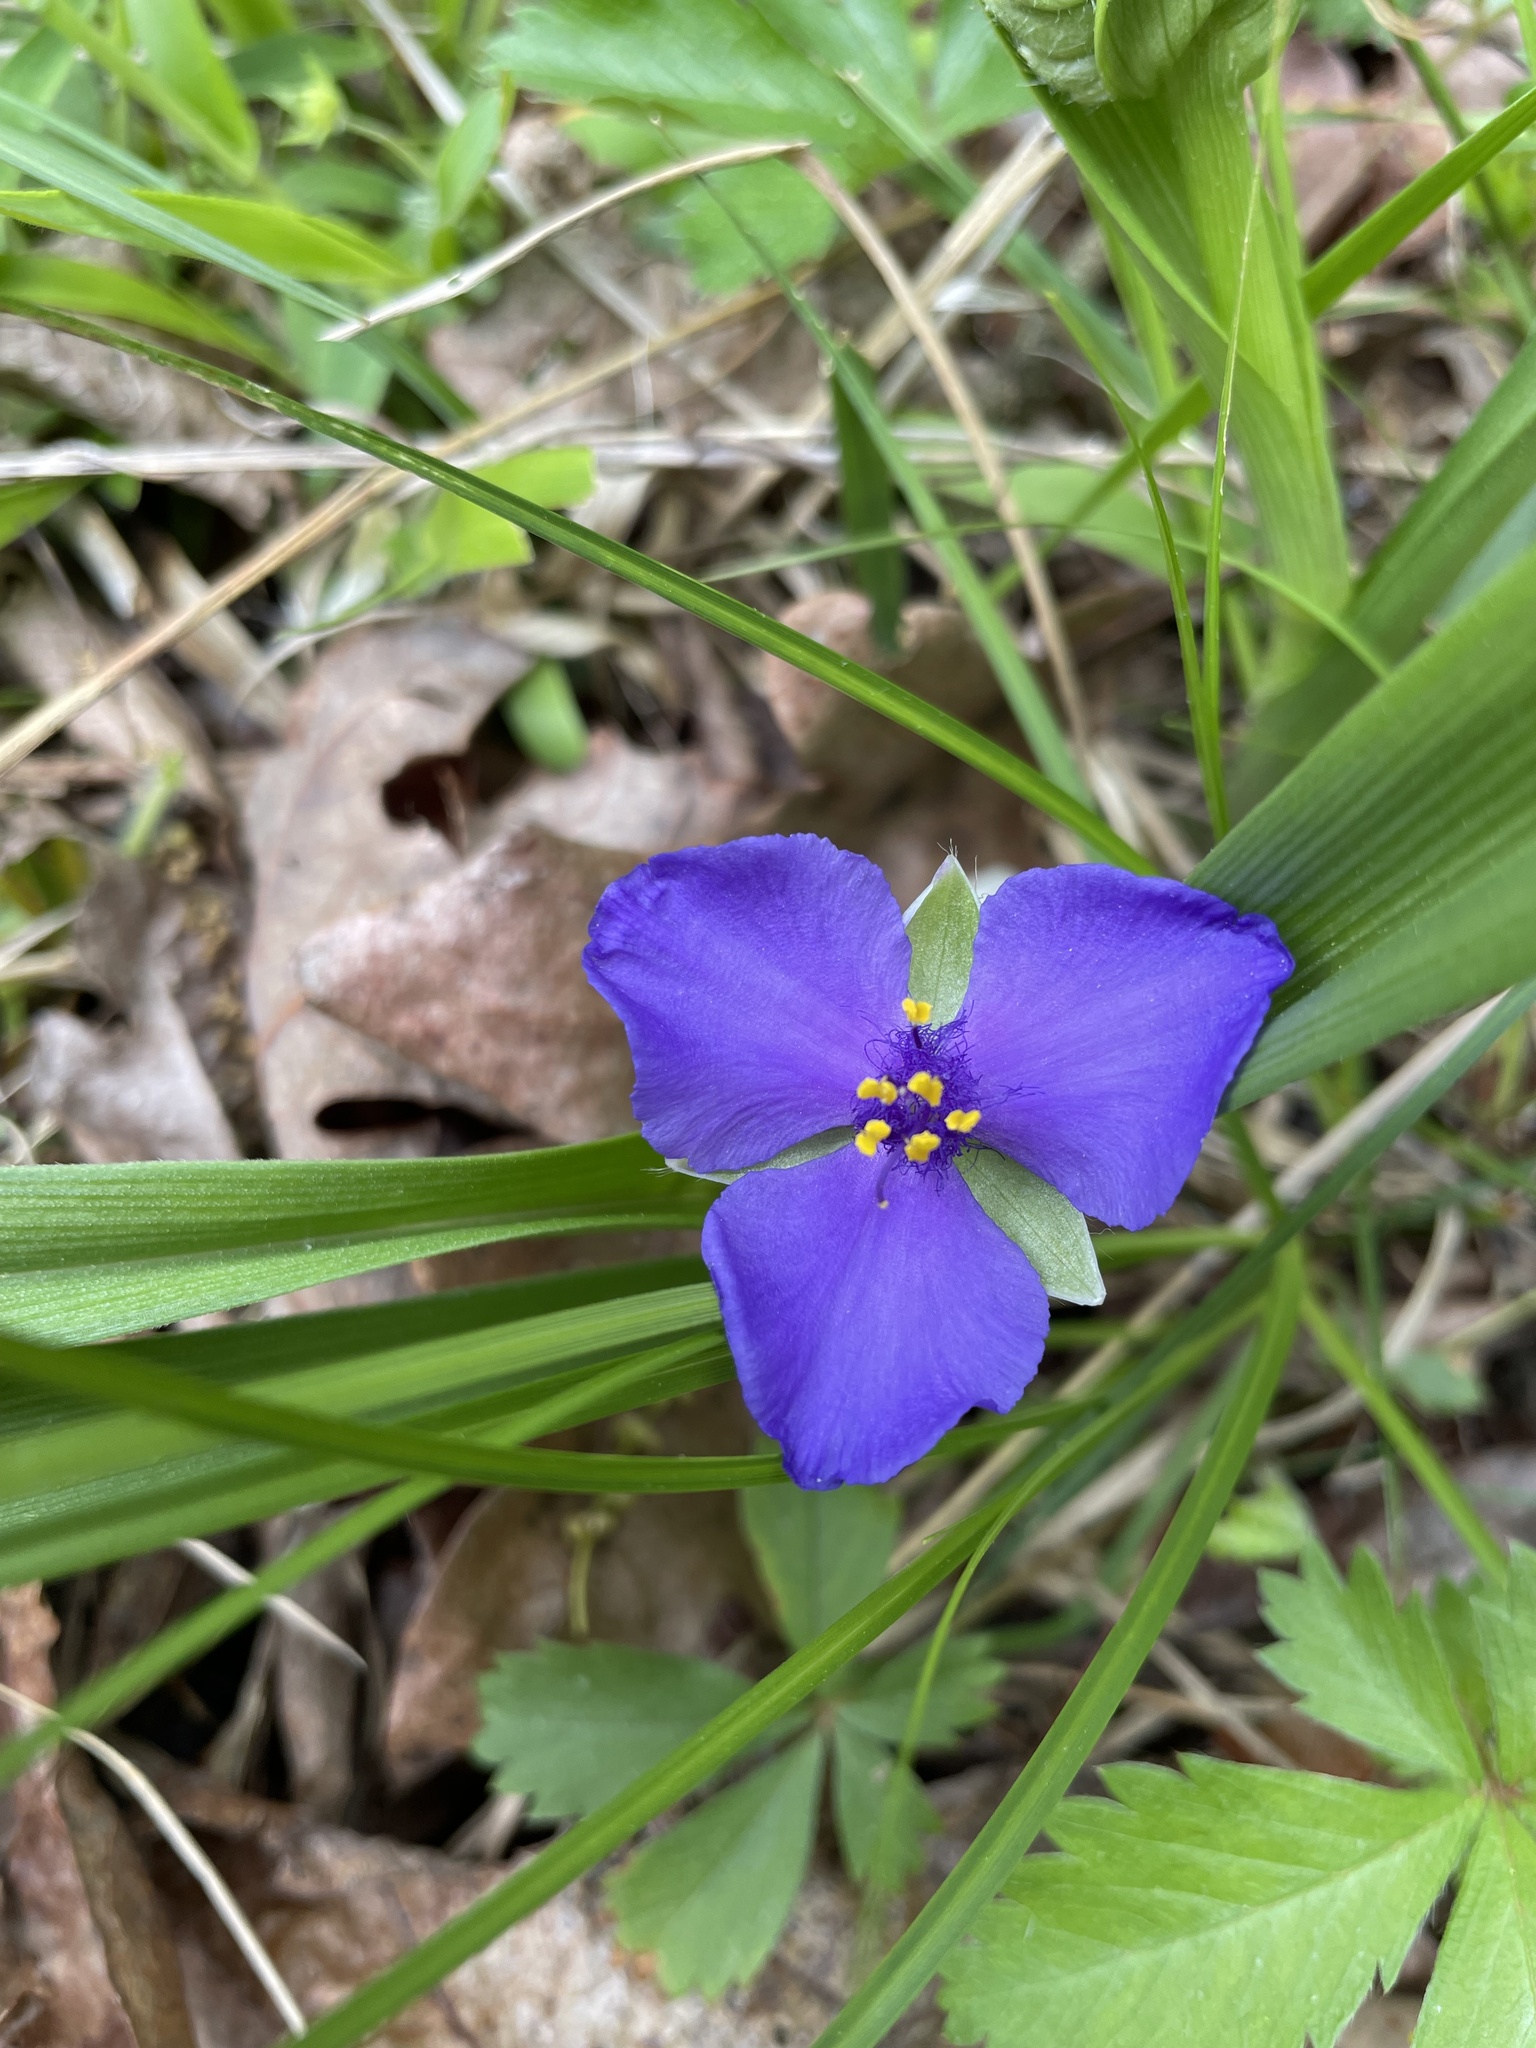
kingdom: Plantae
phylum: Tracheophyta
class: Liliopsida
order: Commelinales
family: Commelinaceae
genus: Tradescantia
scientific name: Tradescantia virginiana
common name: Spiderwort
